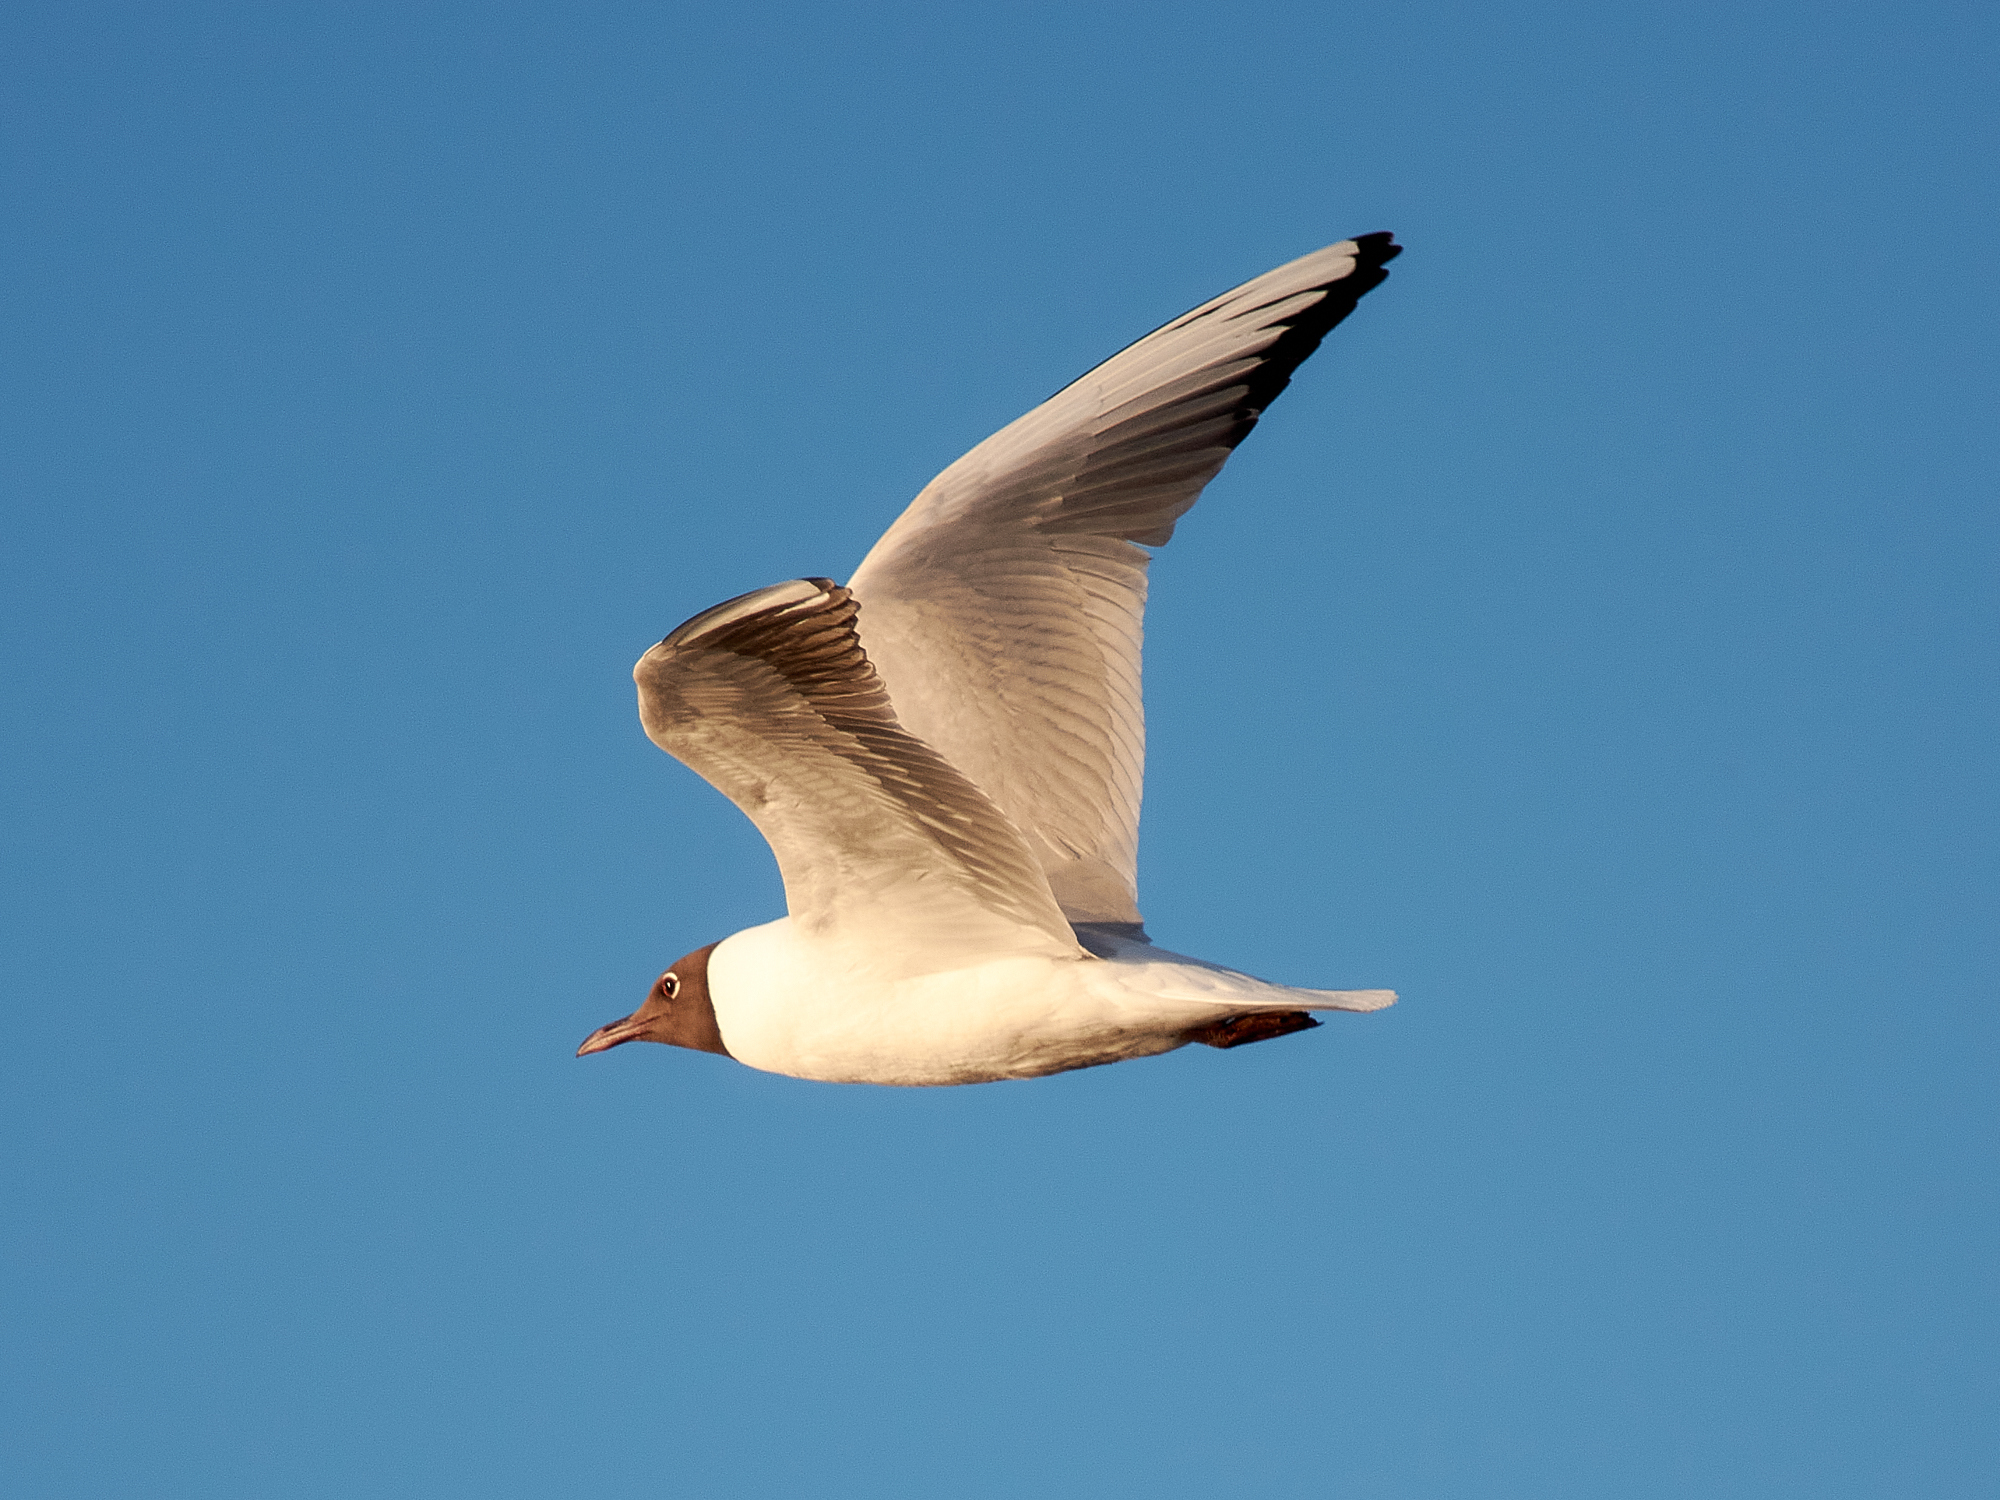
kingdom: Animalia
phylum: Chordata
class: Aves
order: Charadriiformes
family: Laridae
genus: Chroicocephalus
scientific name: Chroicocephalus ridibundus
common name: Black-headed gull
